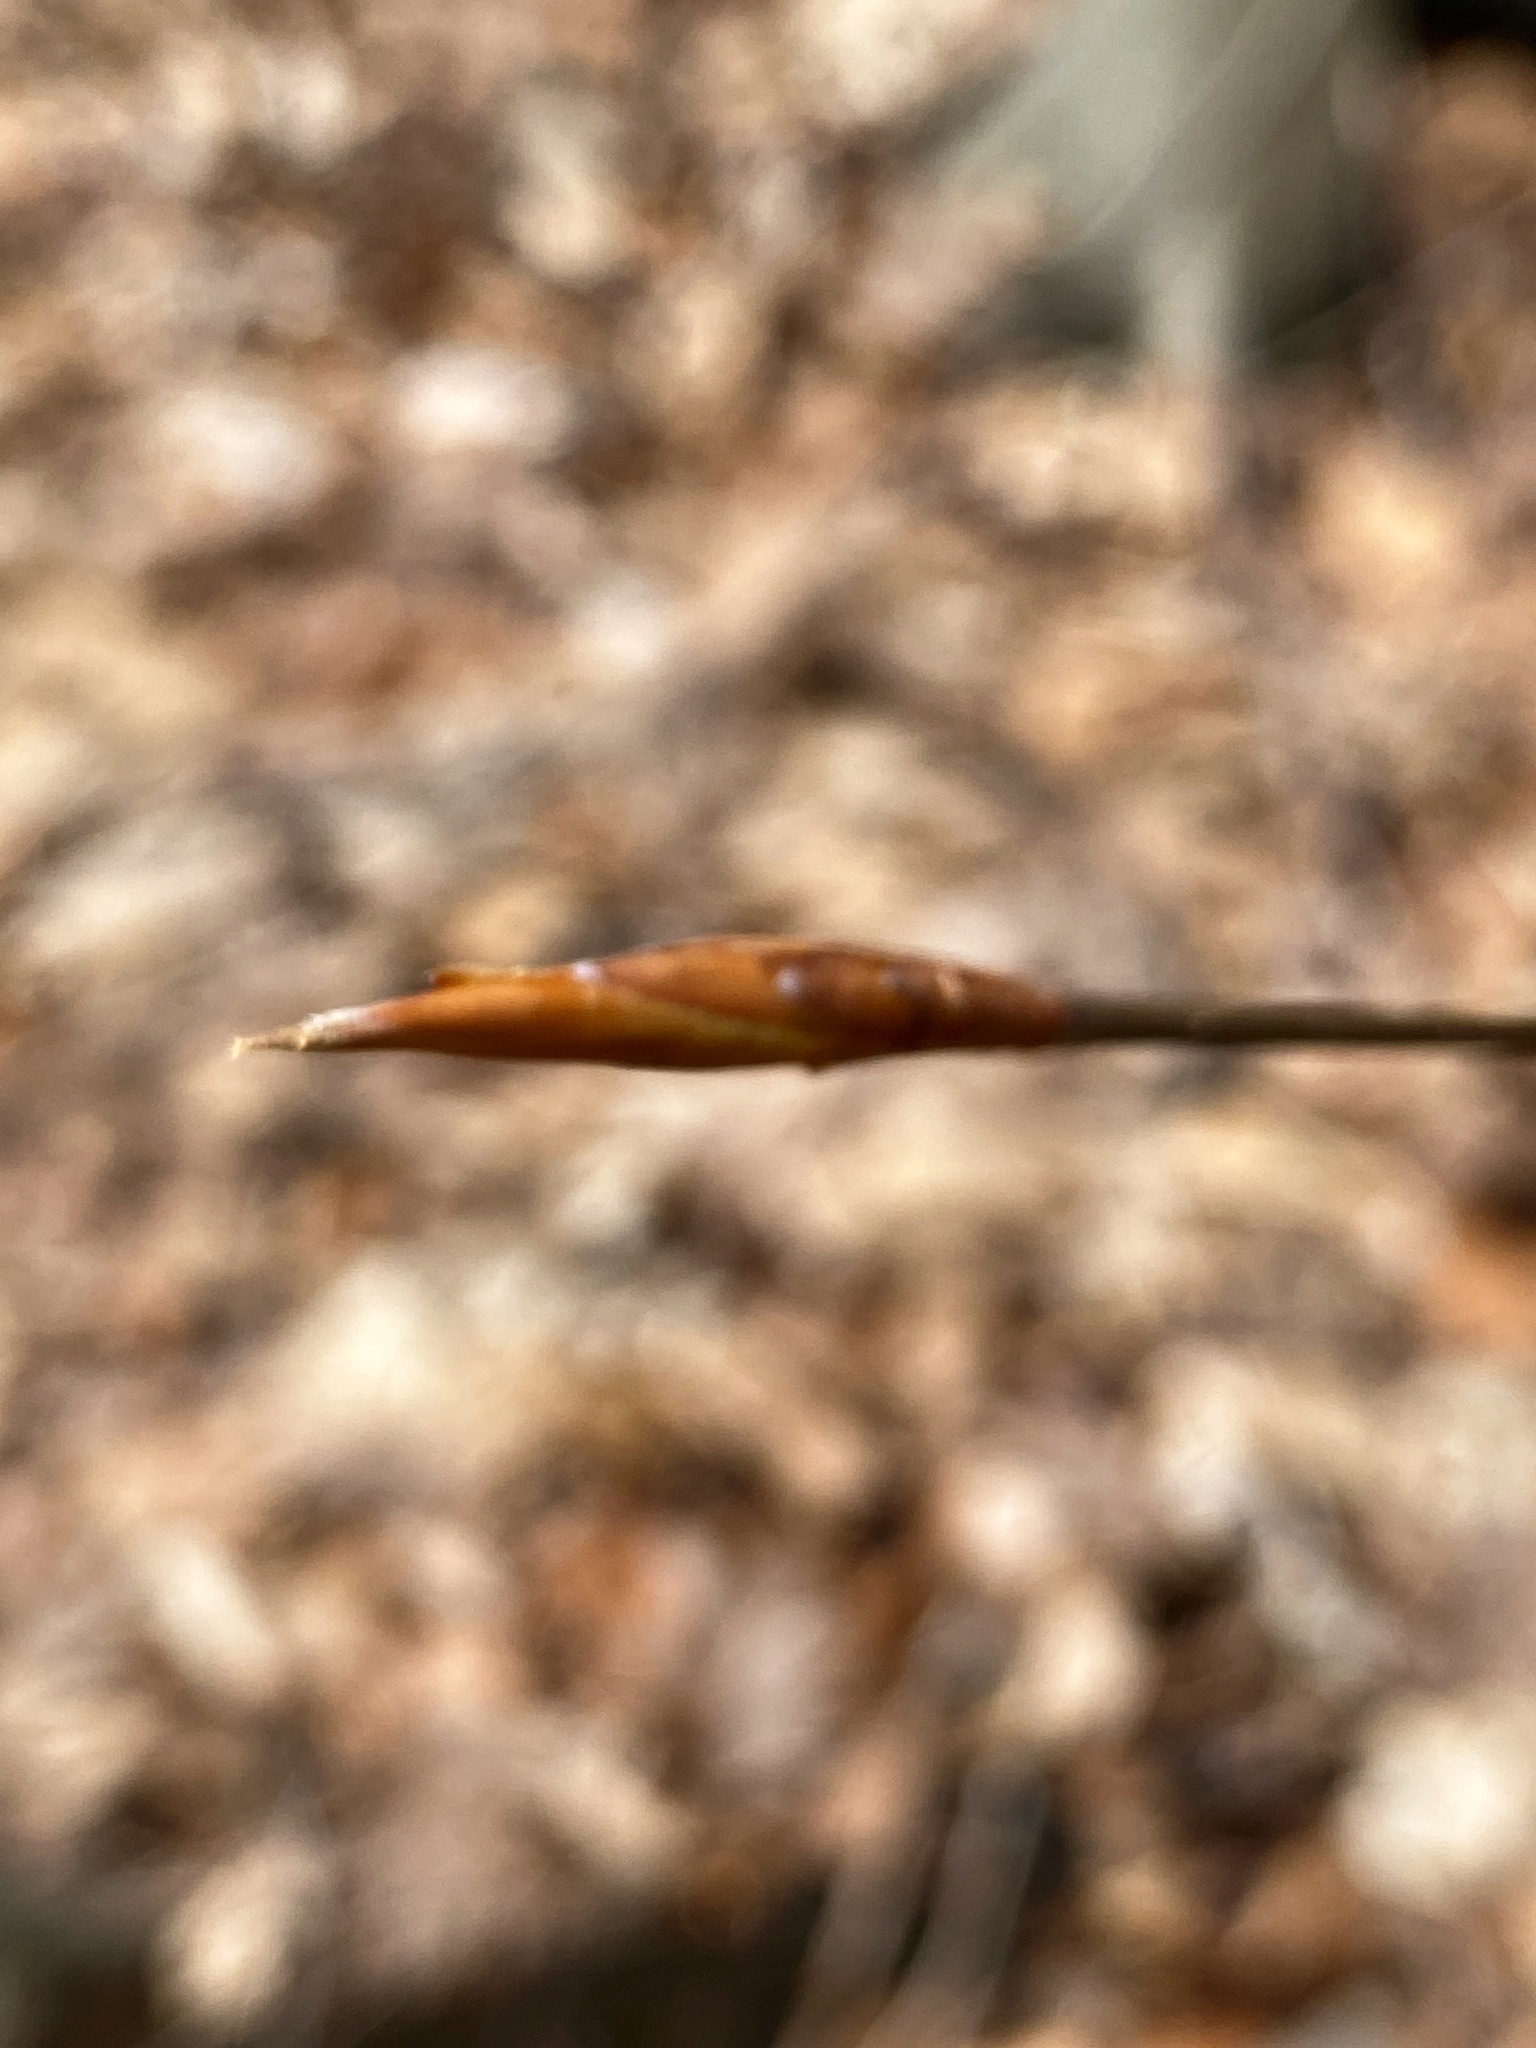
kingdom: Plantae
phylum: Tracheophyta
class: Magnoliopsida
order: Fagales
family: Fagaceae
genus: Fagus
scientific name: Fagus grandifolia
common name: American beech
